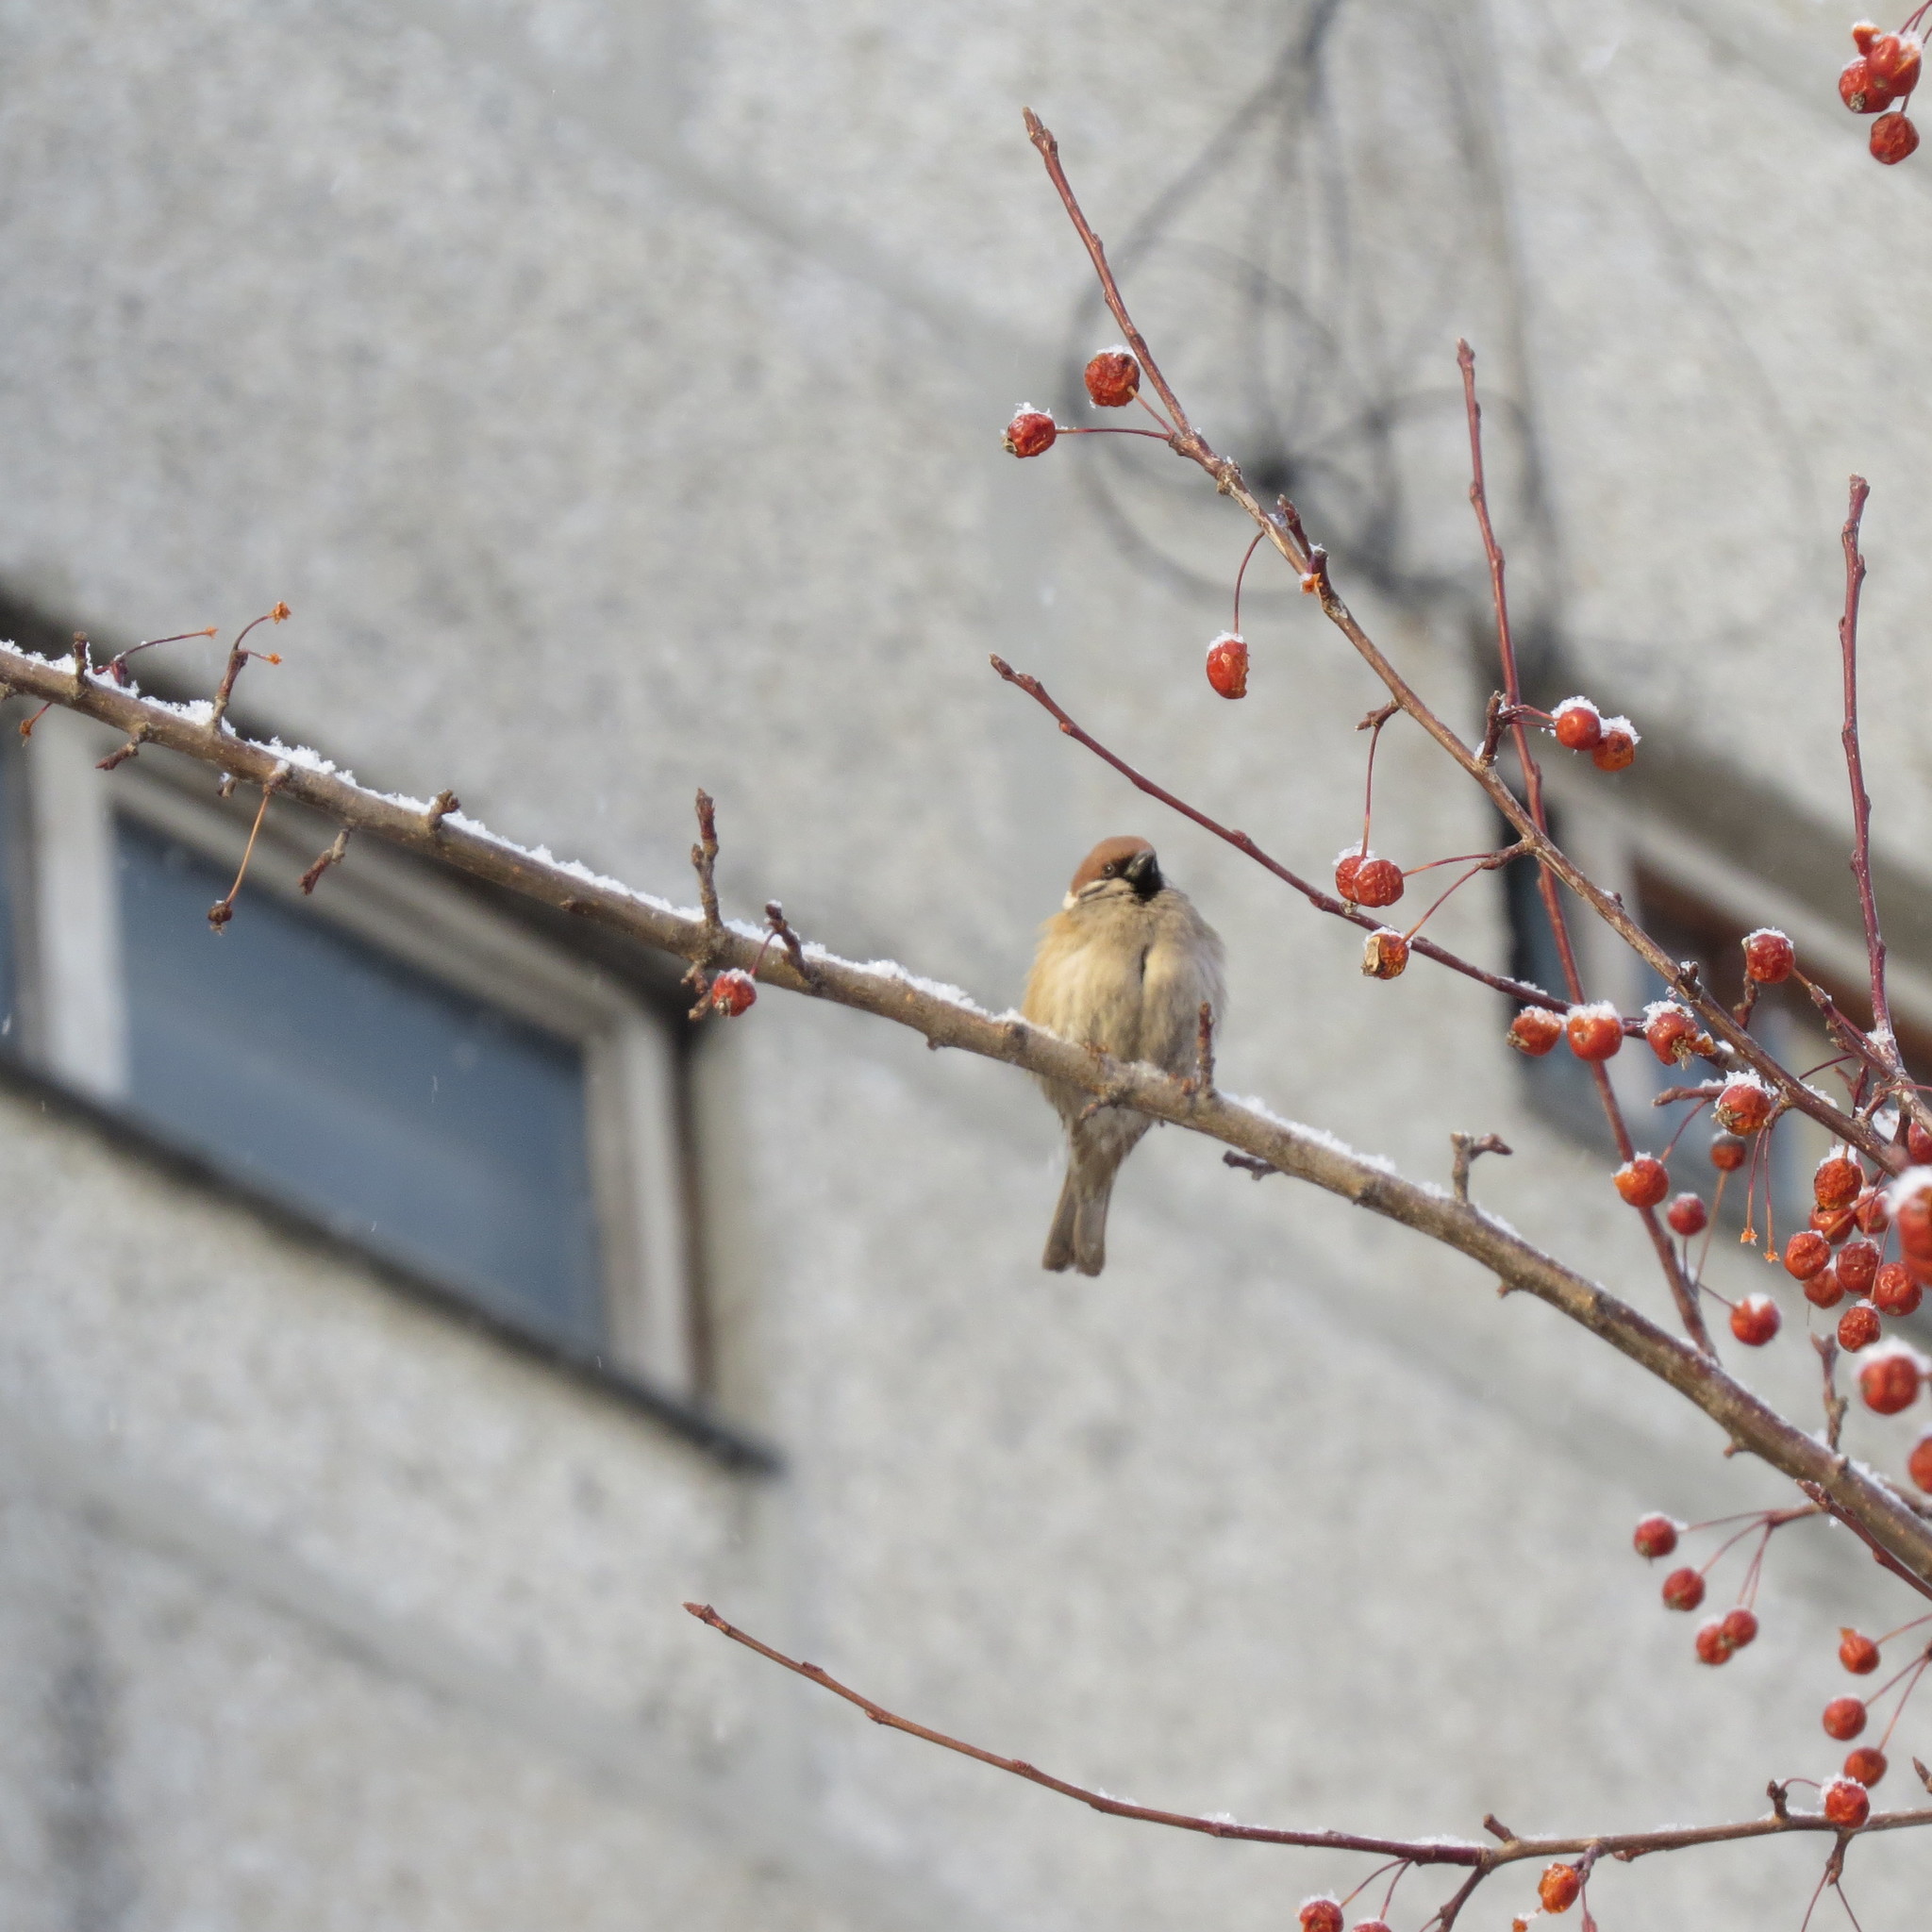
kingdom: Animalia
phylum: Chordata
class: Aves
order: Passeriformes
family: Passeridae
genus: Passer
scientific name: Passer montanus
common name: Eurasian tree sparrow
